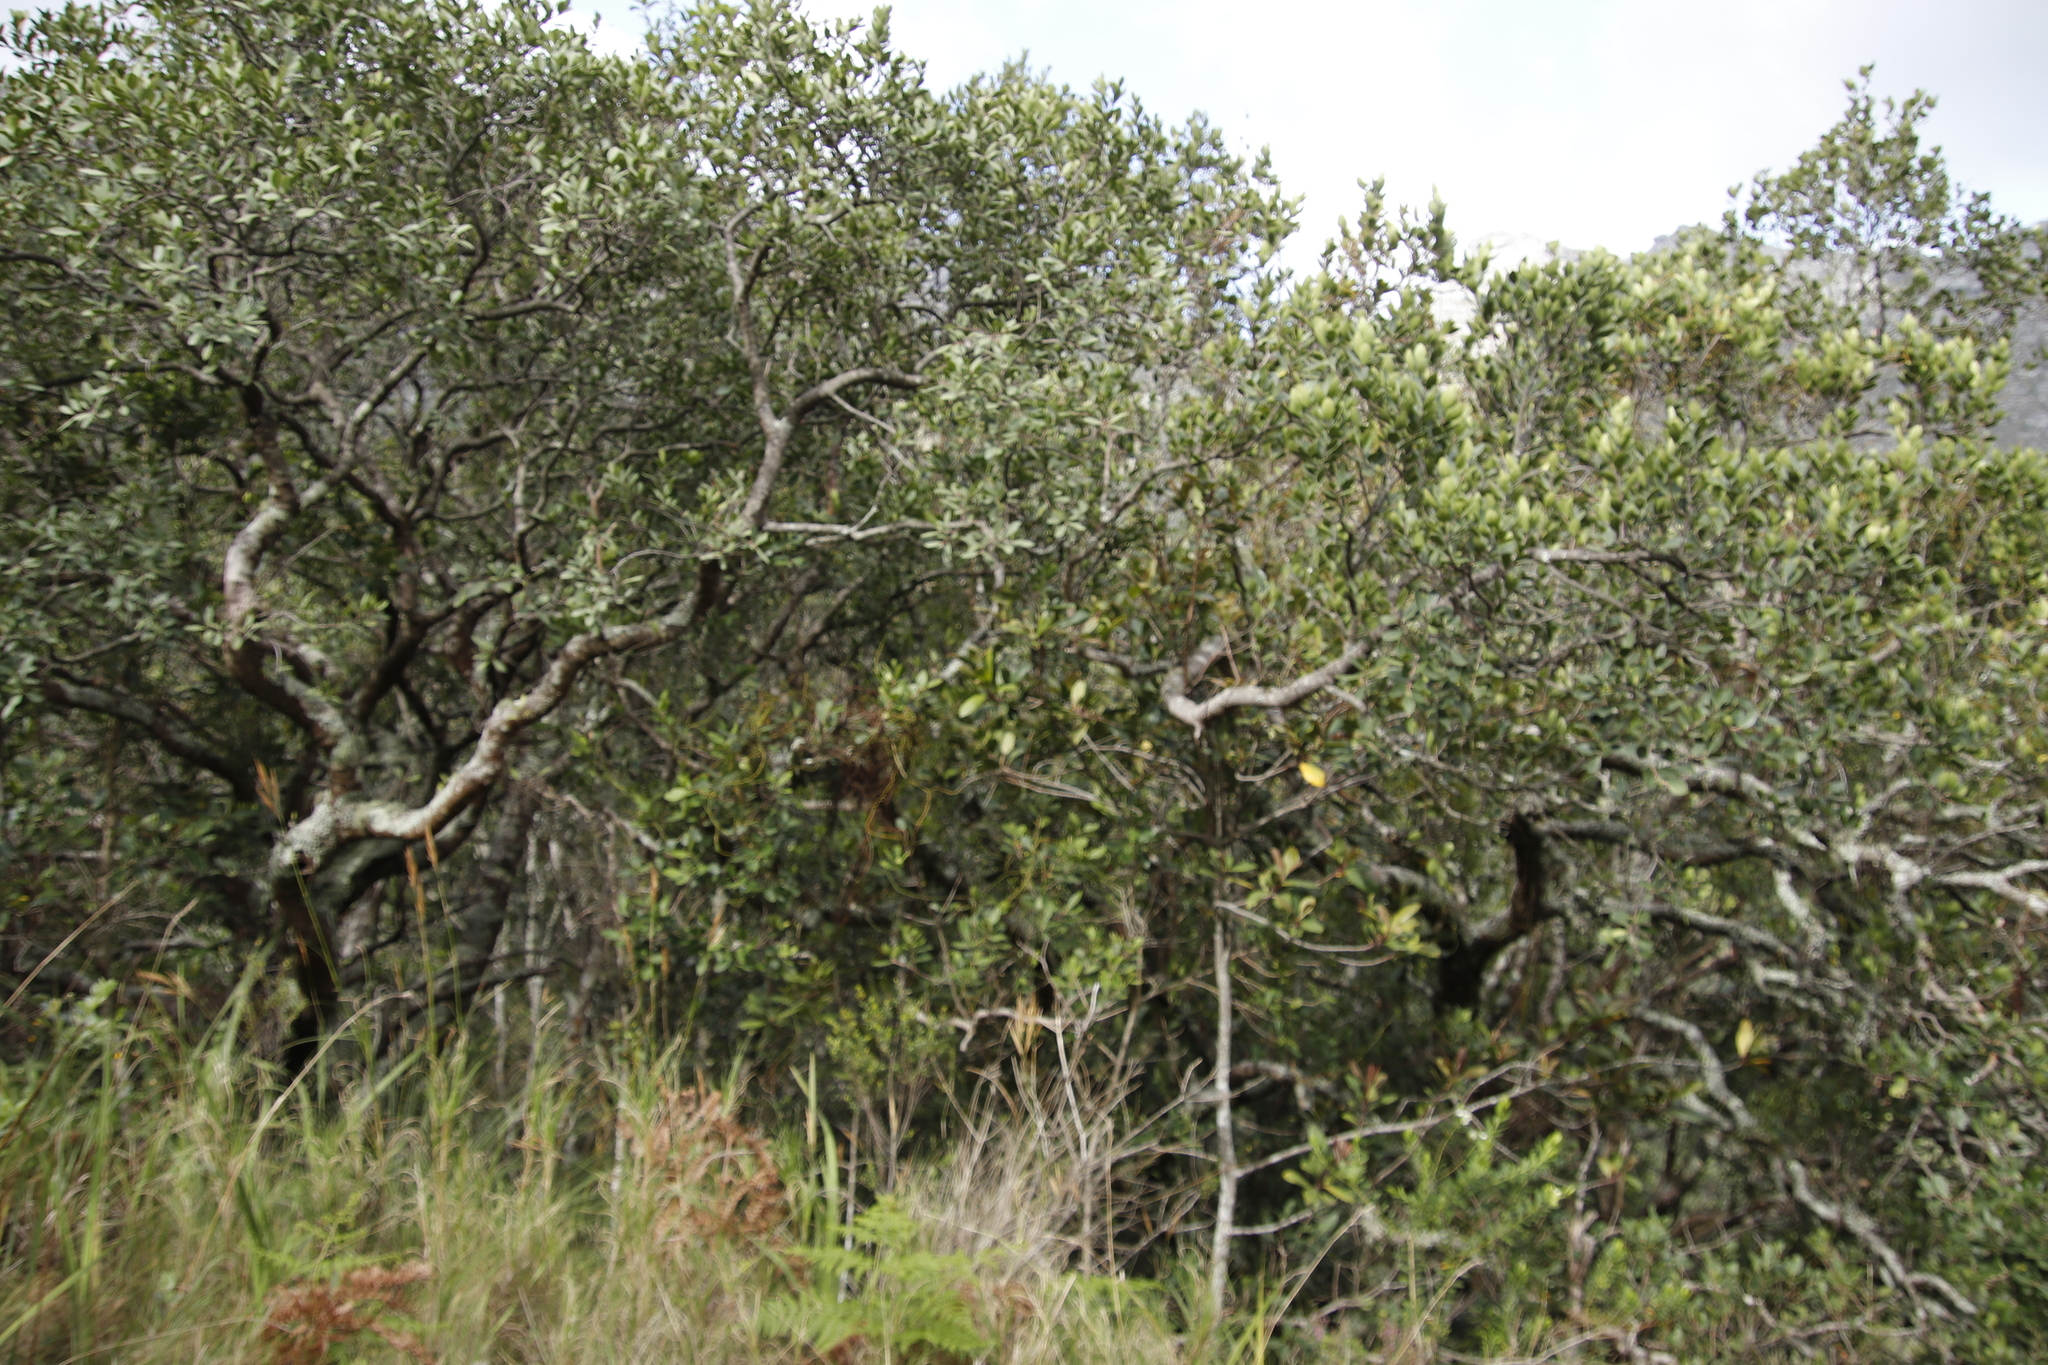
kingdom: Plantae
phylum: Tracheophyta
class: Magnoliopsida
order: Celastrales
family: Celastraceae
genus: Pterocelastrus
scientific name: Pterocelastrus tricuspidatus
